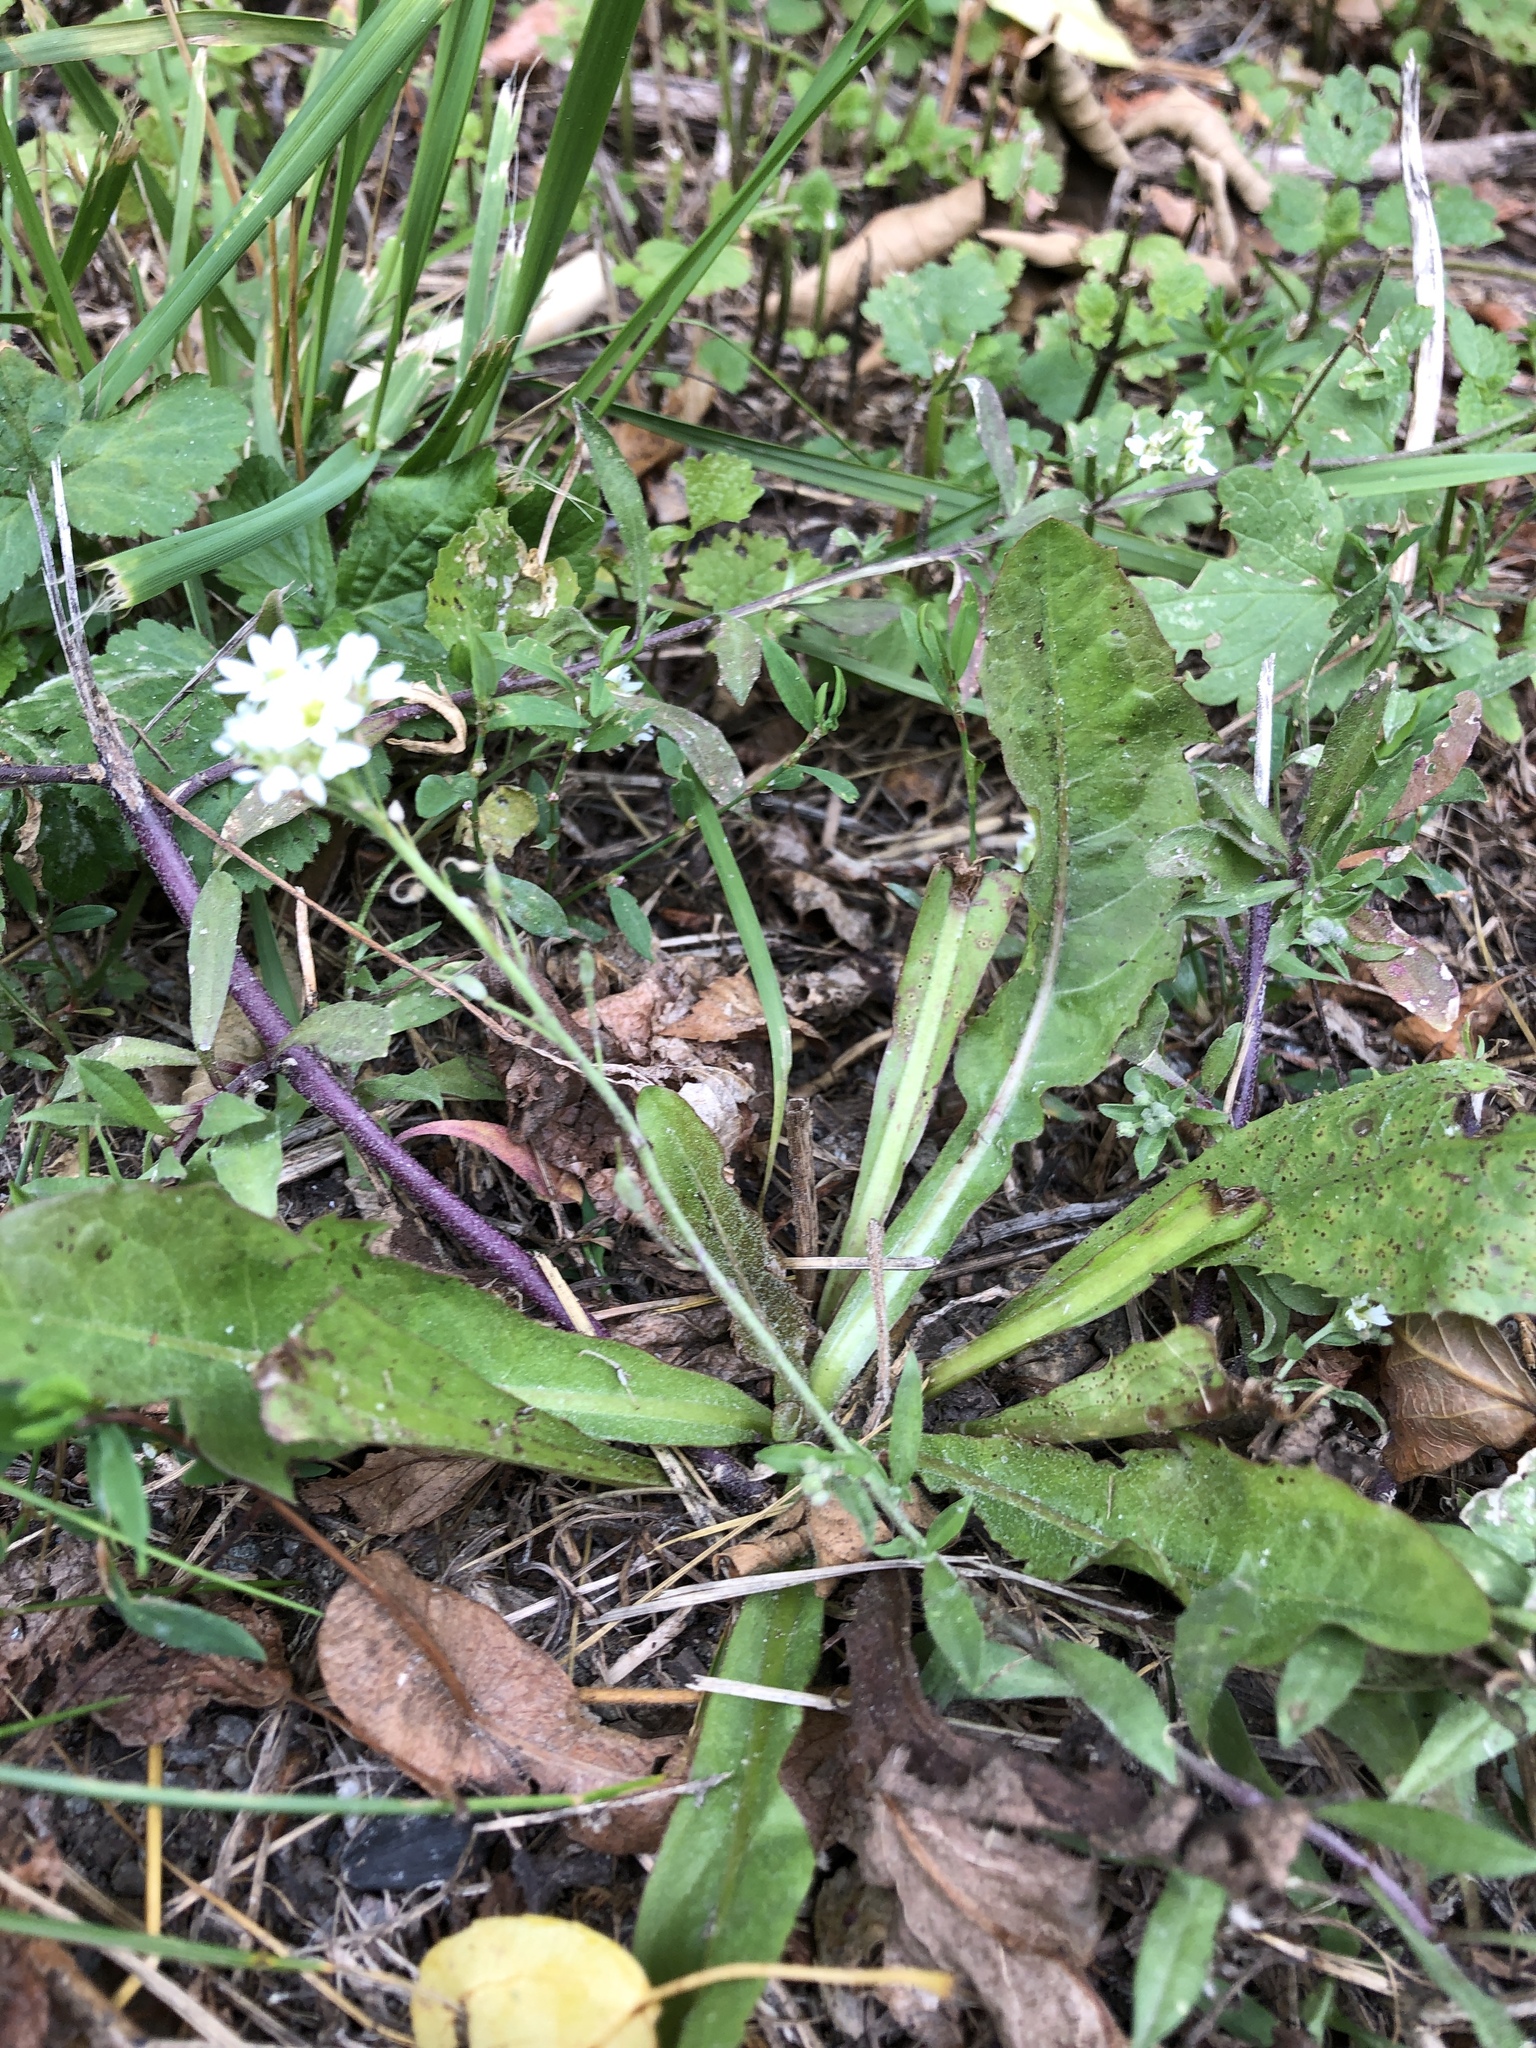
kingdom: Plantae
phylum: Tracheophyta
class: Magnoliopsida
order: Brassicales
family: Brassicaceae
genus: Berteroa
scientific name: Berteroa incana
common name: Hoary alison
